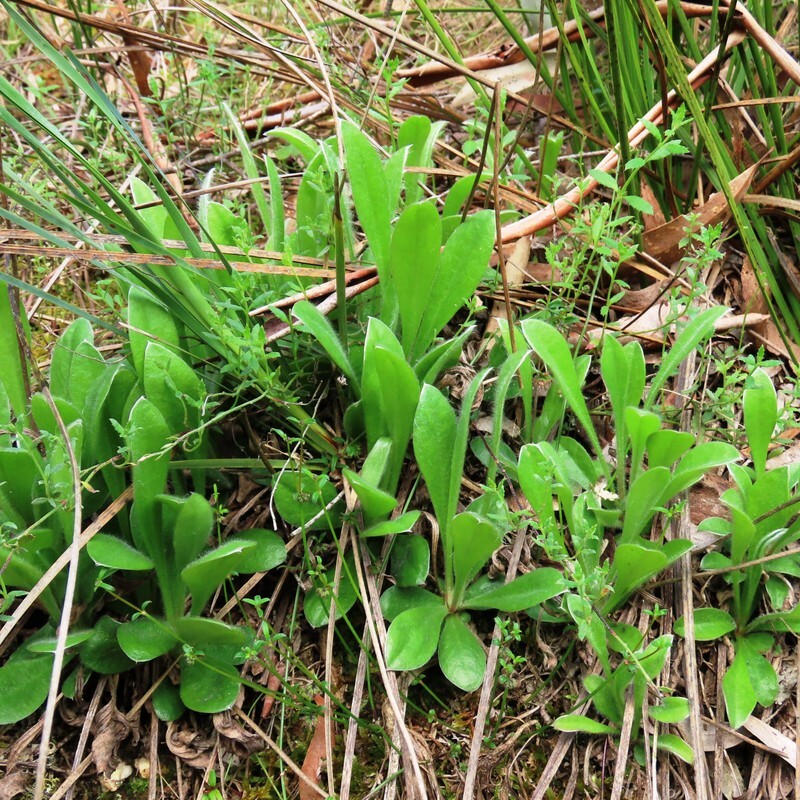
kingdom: Plantae
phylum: Tracheophyta
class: Magnoliopsida
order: Asterales
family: Goodeniaceae
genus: Brunonia
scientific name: Brunonia australis
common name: Blue pincushion
